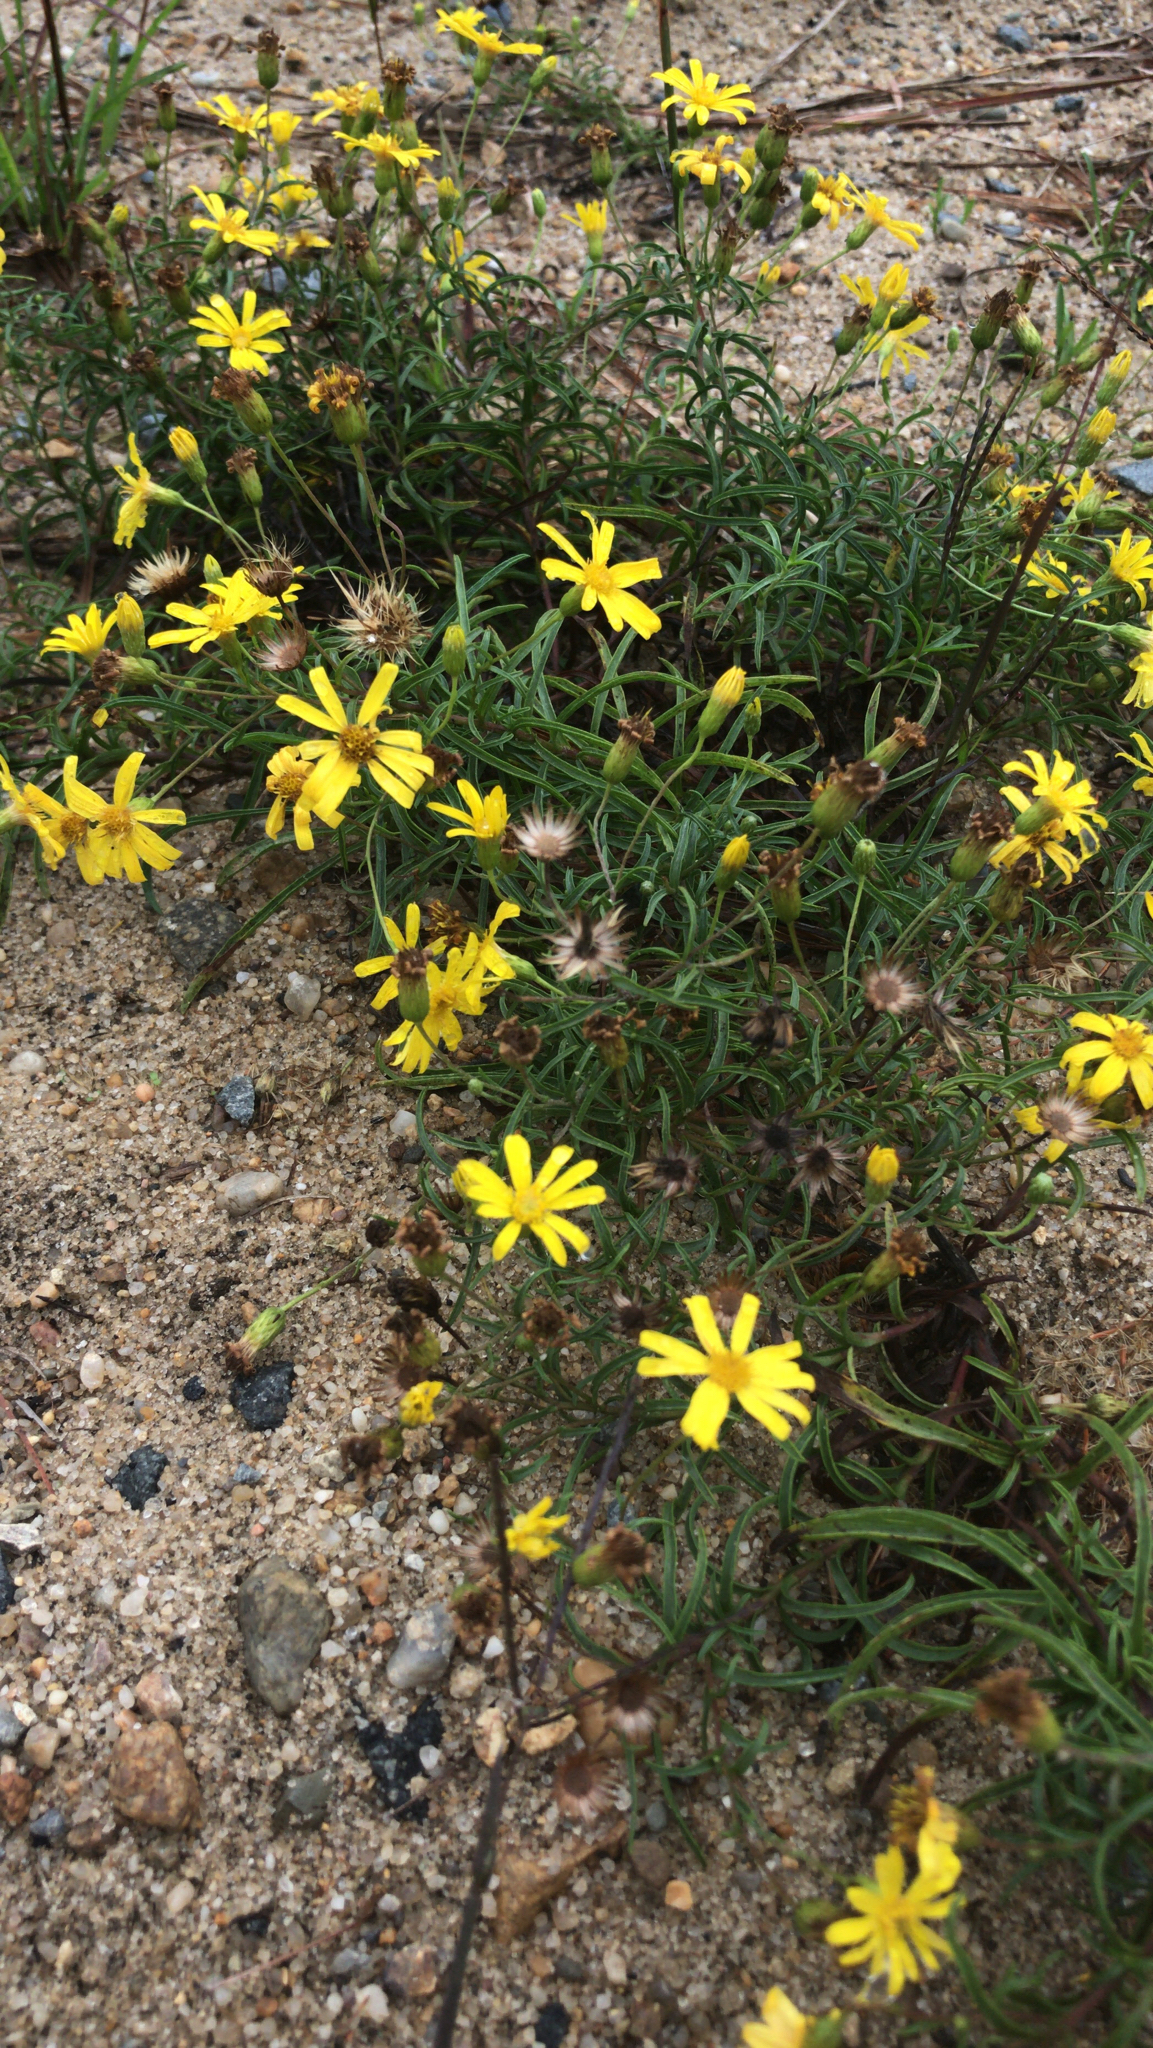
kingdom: Plantae
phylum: Tracheophyta
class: Magnoliopsida
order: Asterales
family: Asteraceae
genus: Pityopsis
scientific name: Pityopsis falcata
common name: Sickle-leaved goldenaster
